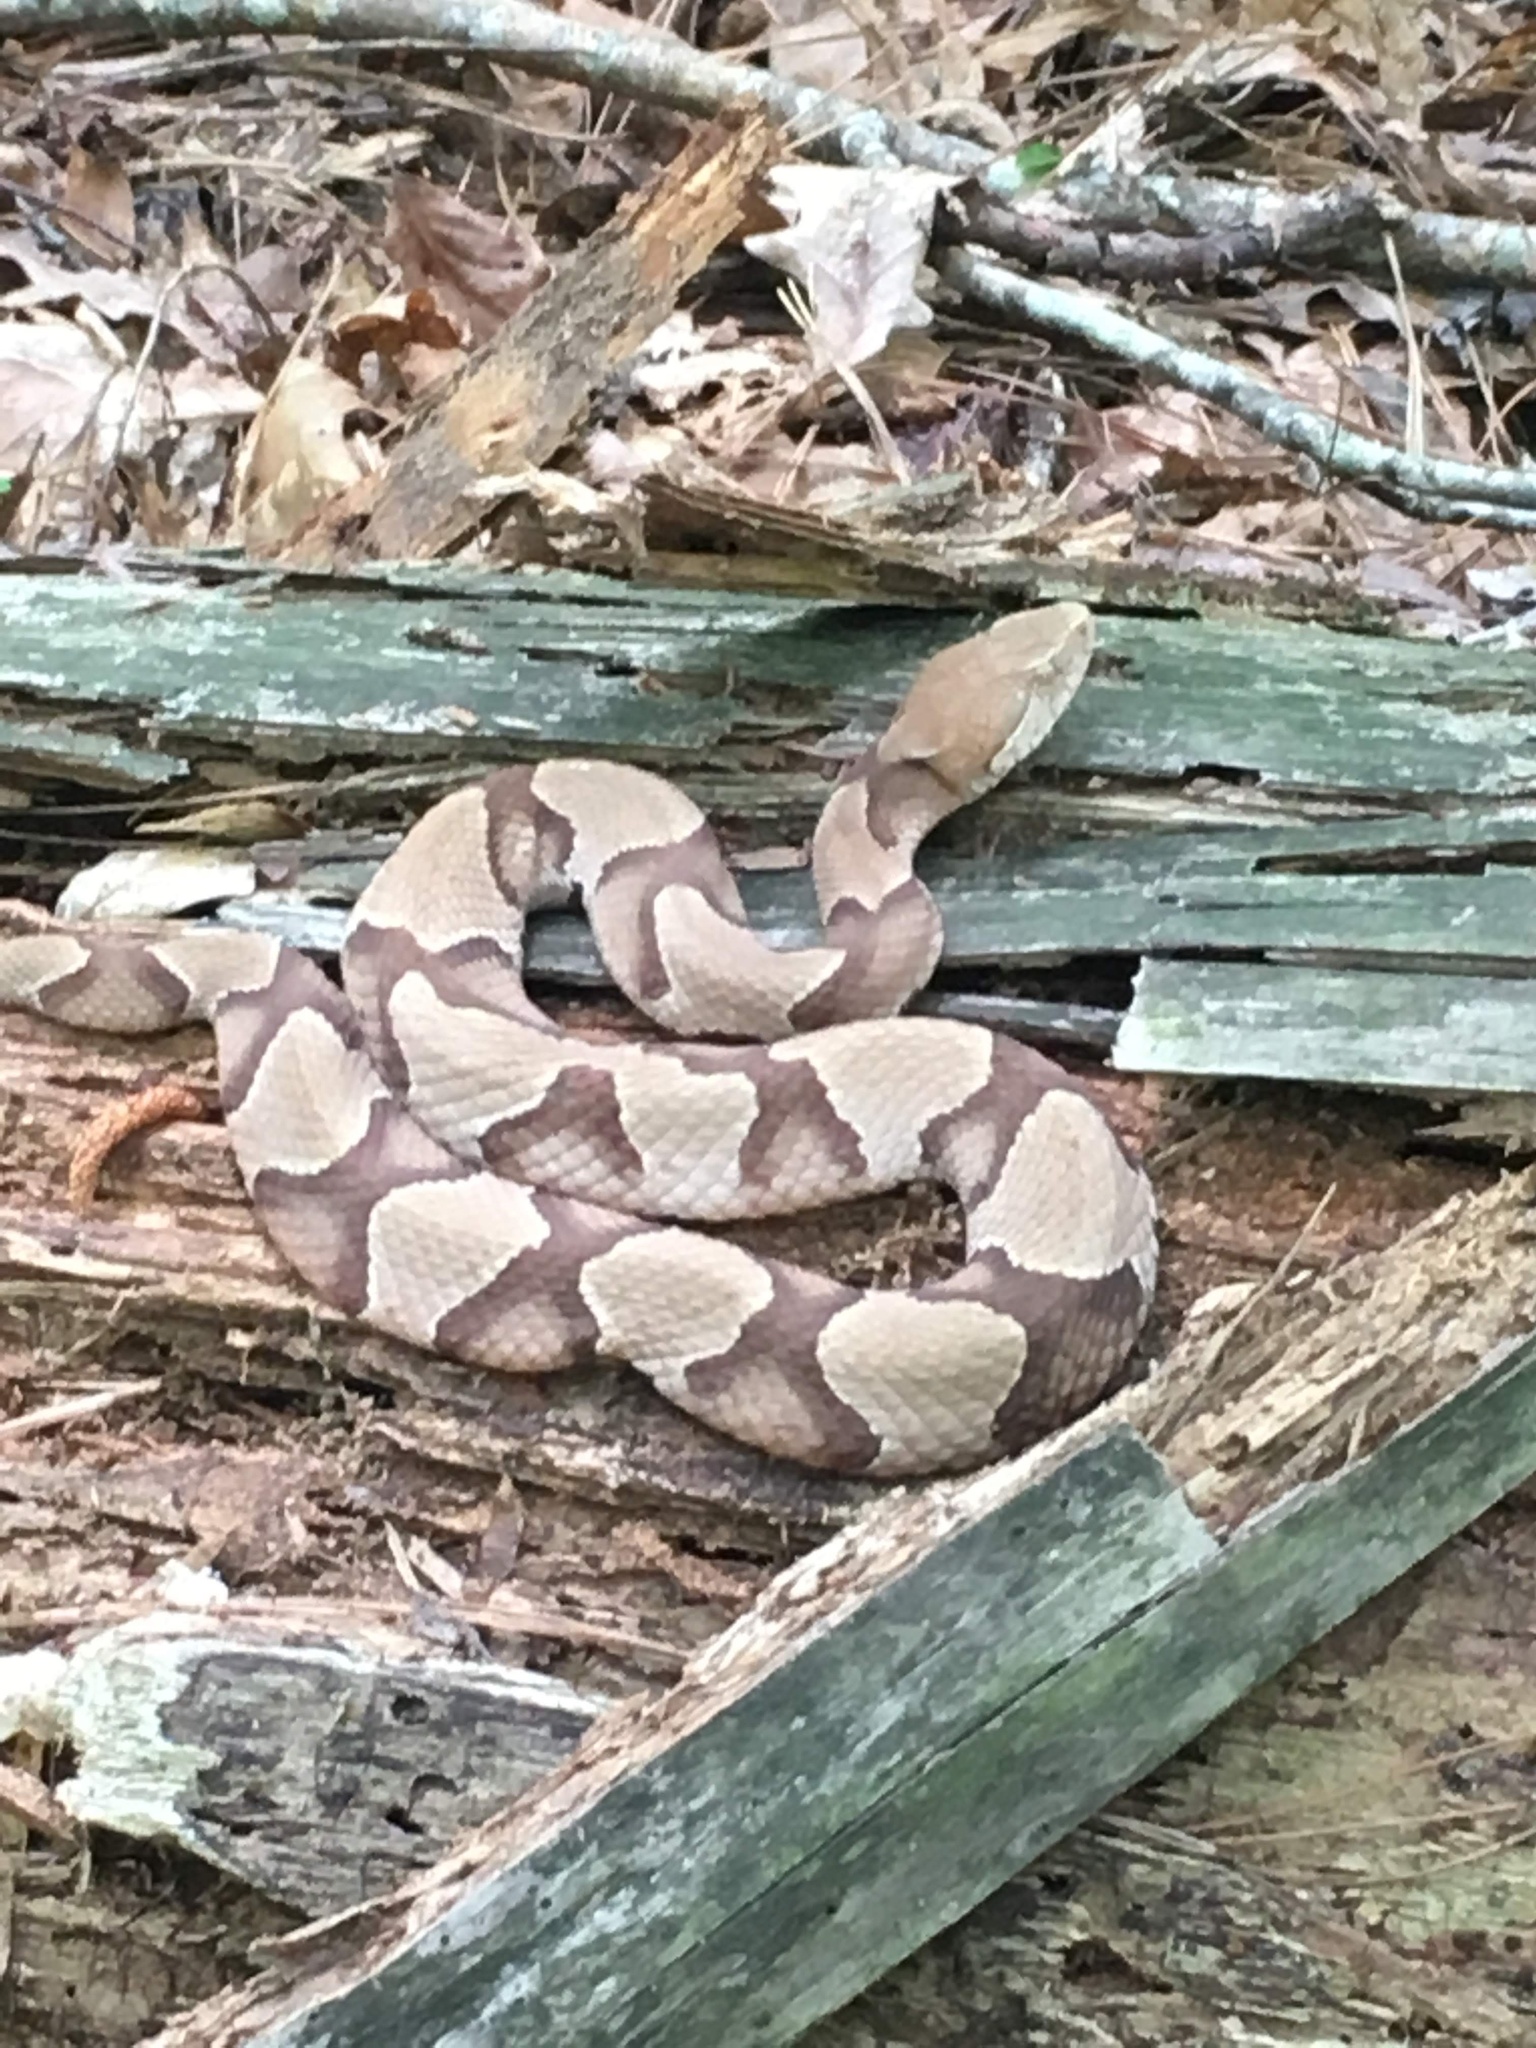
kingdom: Animalia
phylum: Chordata
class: Squamata
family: Viperidae
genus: Agkistrodon
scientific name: Agkistrodon contortrix
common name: Northern copperhead
